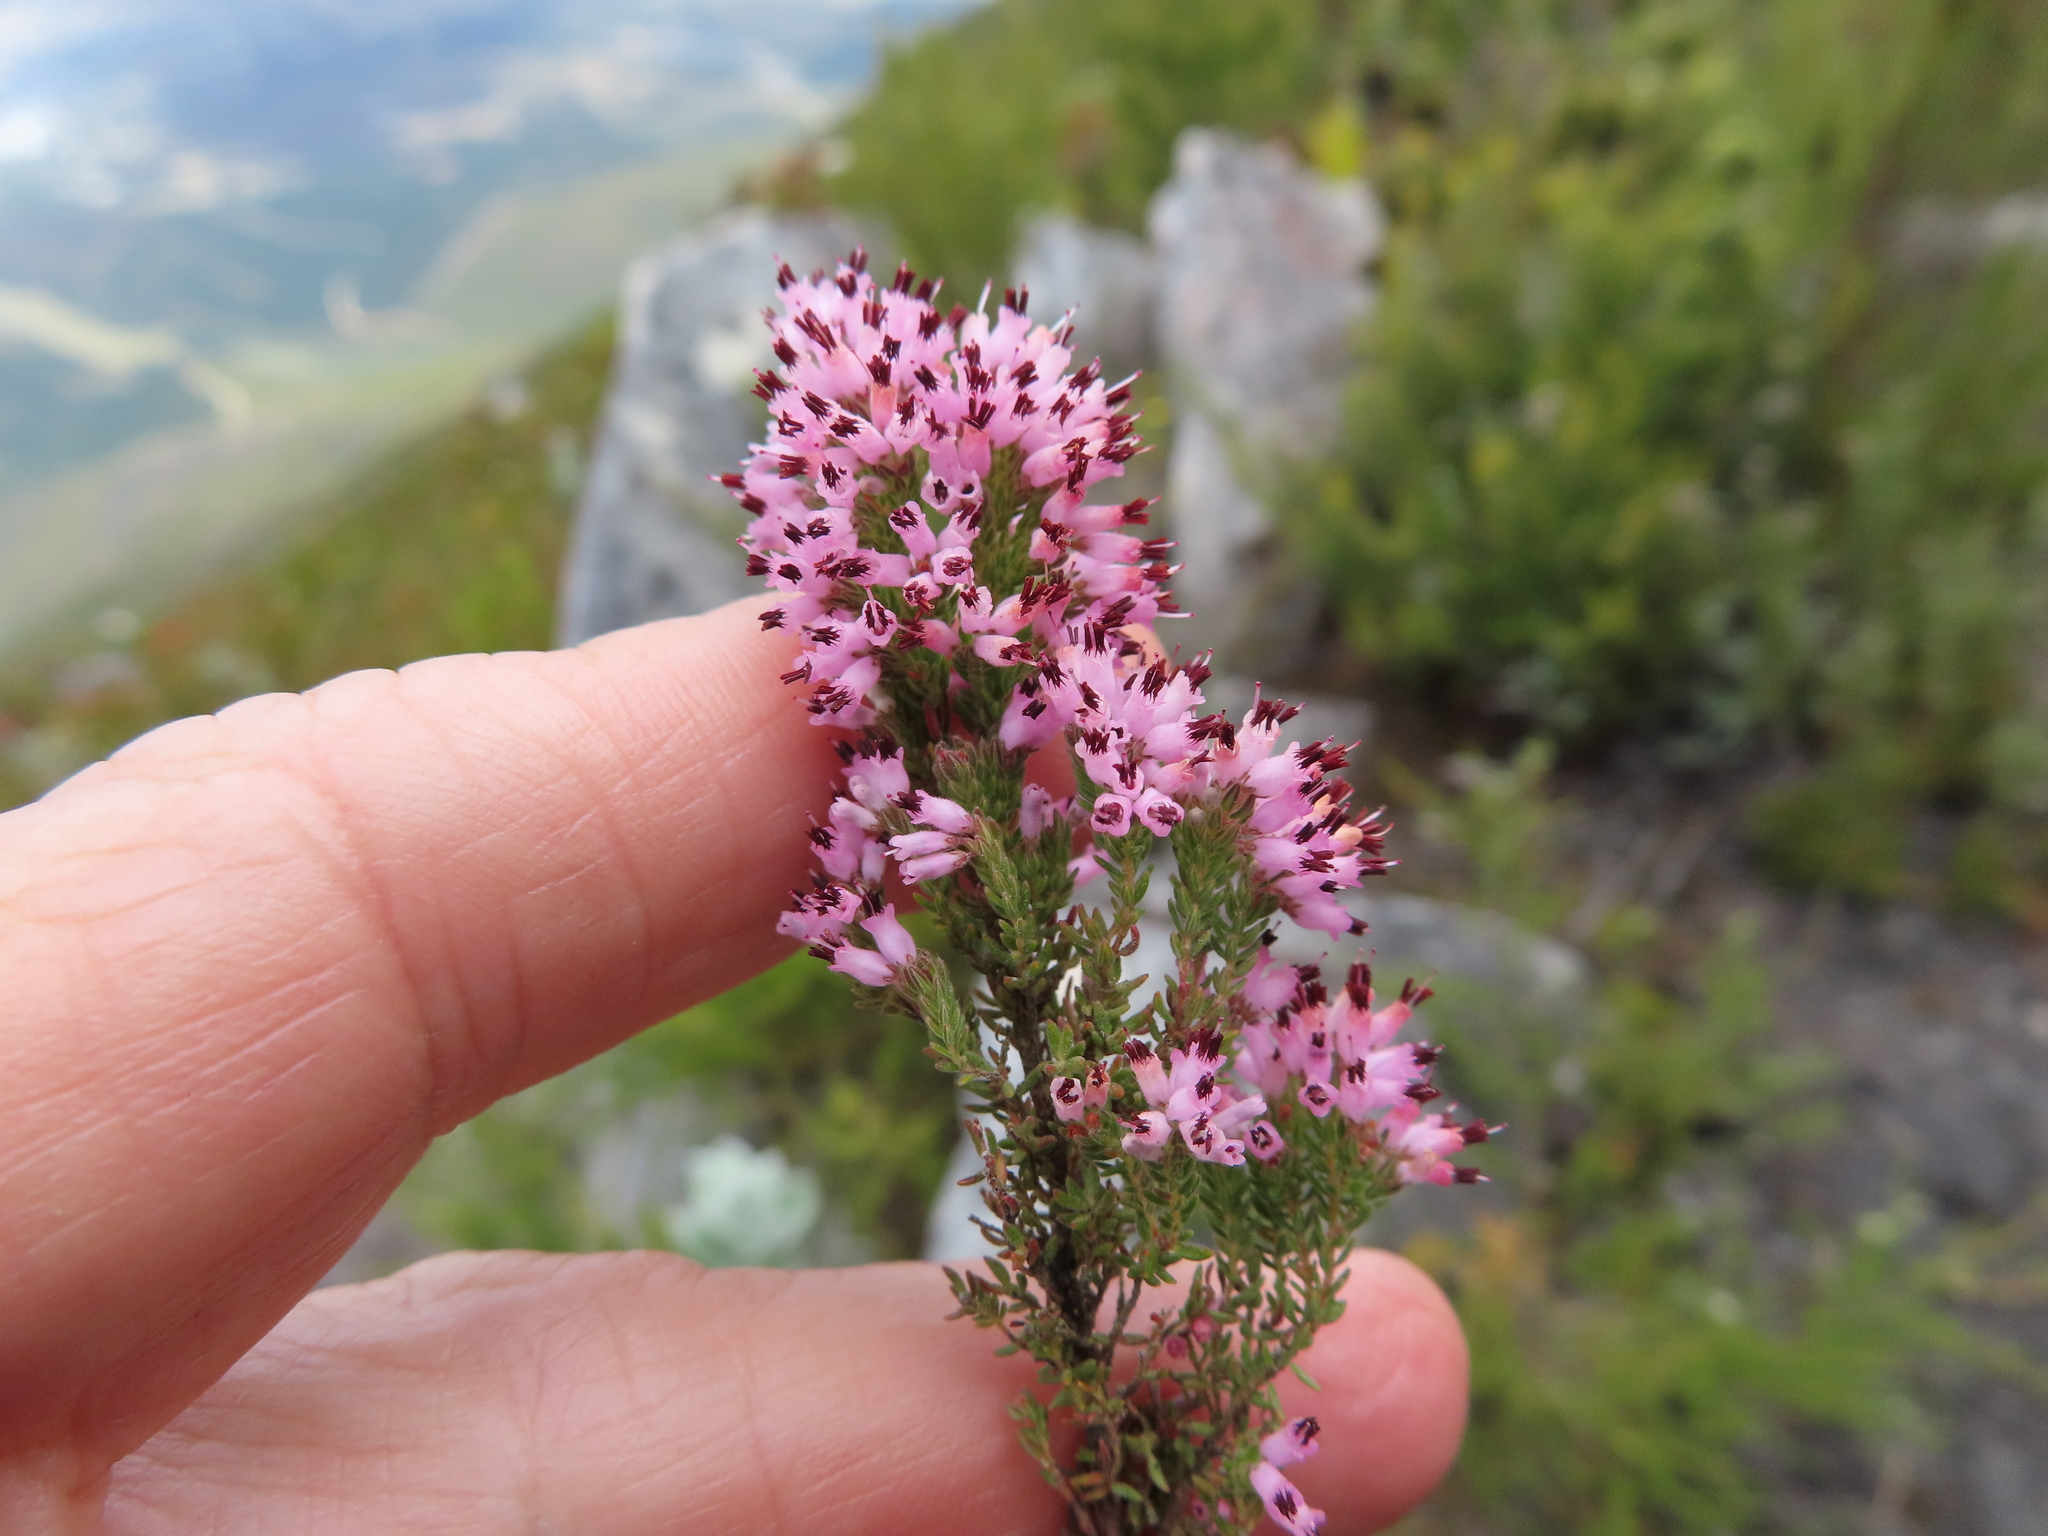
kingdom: Plantae
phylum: Tracheophyta
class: Magnoliopsida
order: Ericales
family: Ericaceae
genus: Erica
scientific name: Erica longimontana
